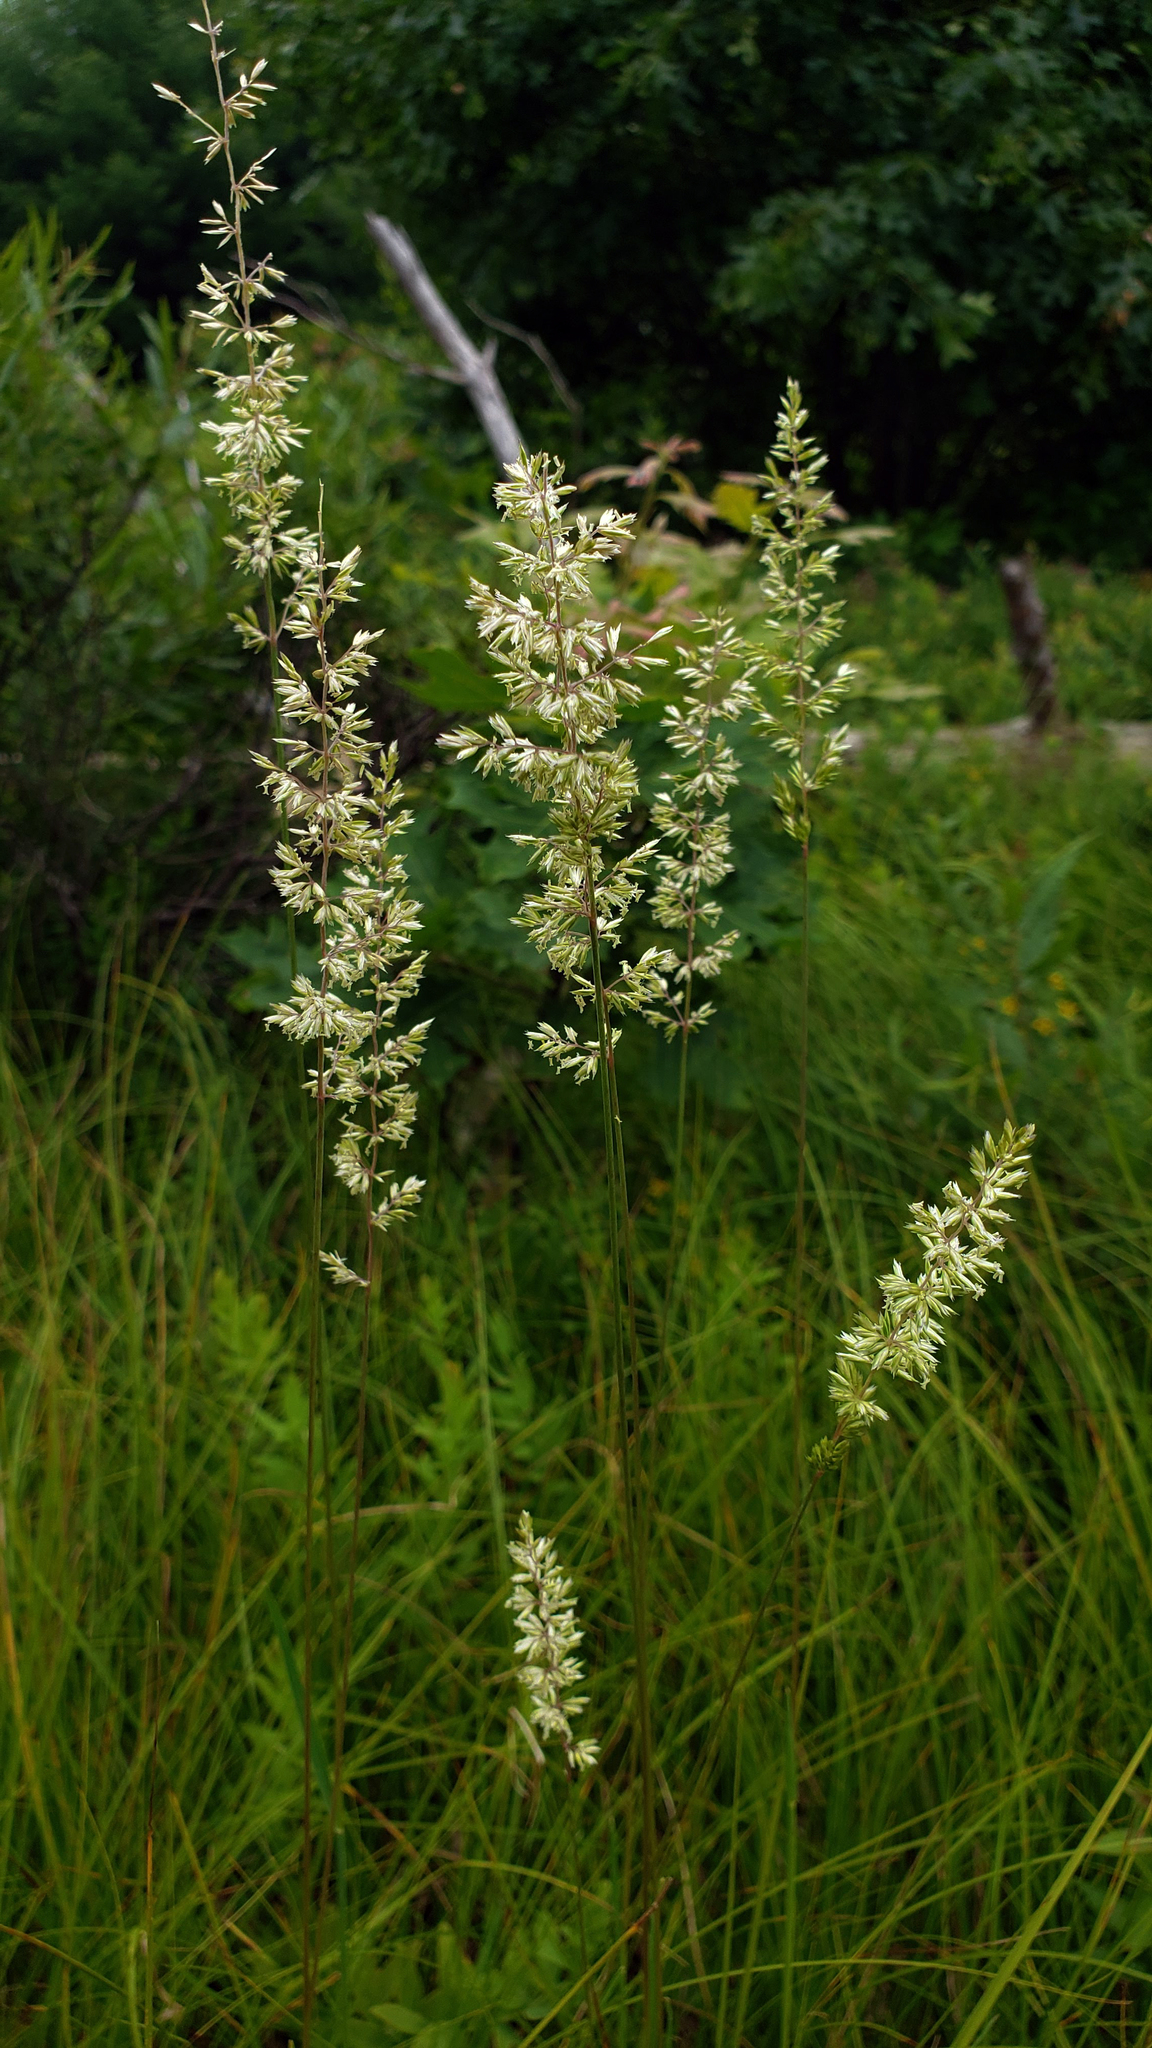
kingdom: Plantae
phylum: Tracheophyta
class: Liliopsida
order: Poales
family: Poaceae
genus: Koeleria
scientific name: Koeleria macrantha
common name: Crested hair-grass
